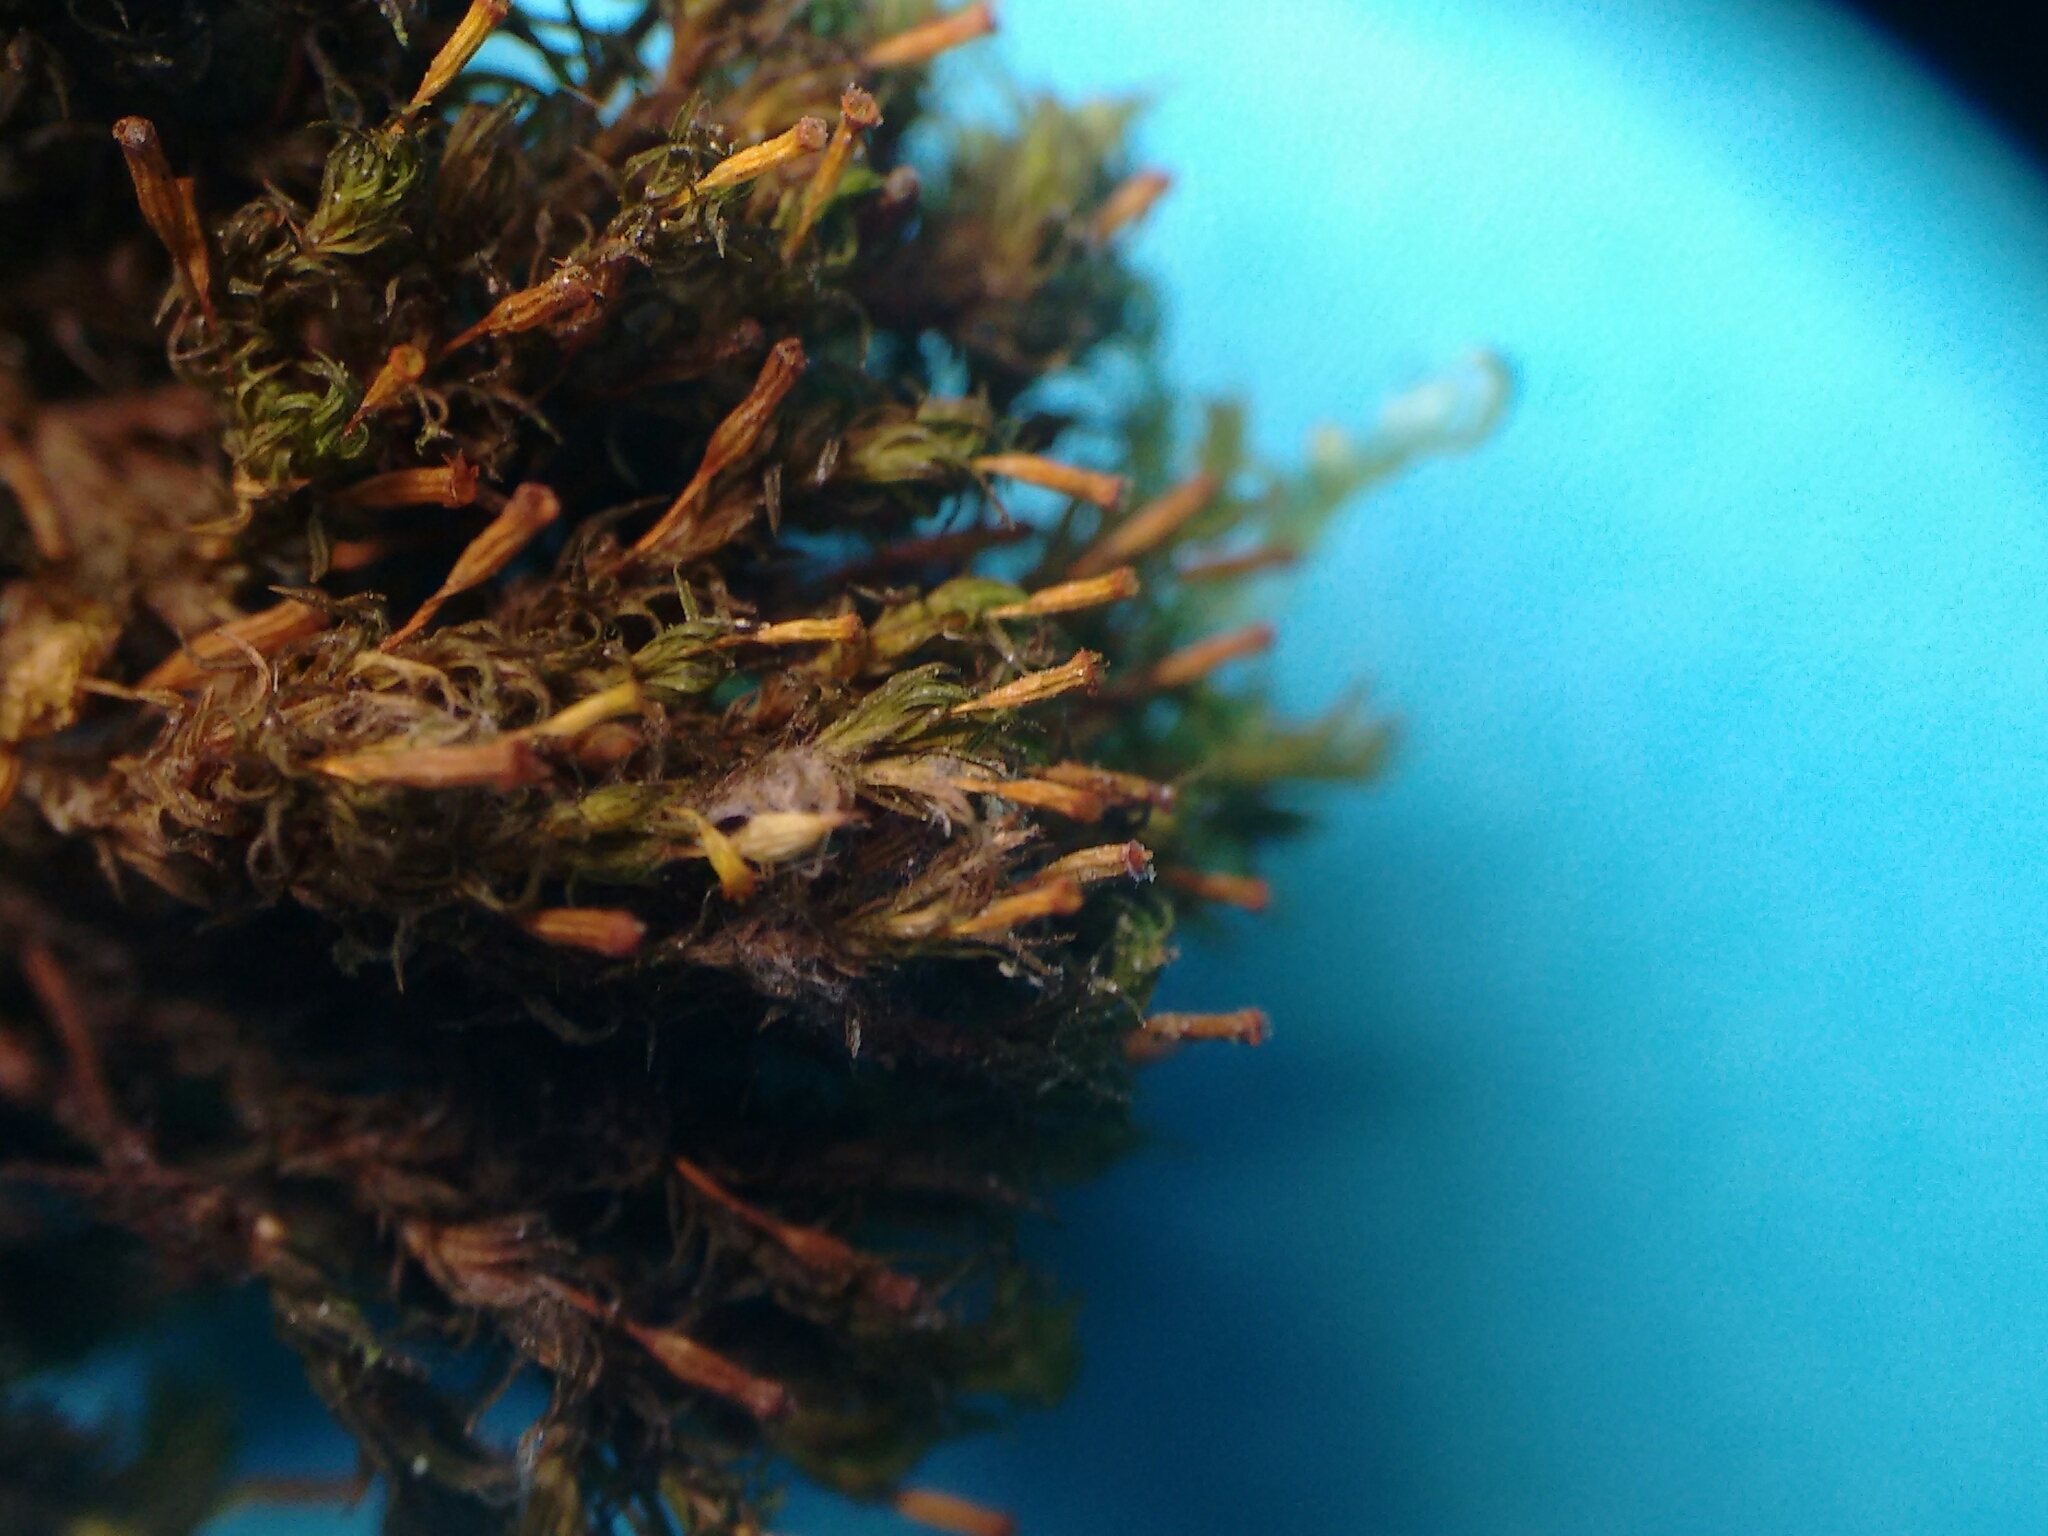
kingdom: Plantae
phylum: Bryophyta
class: Bryopsida
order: Orthotrichales
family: Orthotrichaceae
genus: Orthotrichum
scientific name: Orthotrichum pulchellum
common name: Elegant bristle-moss
